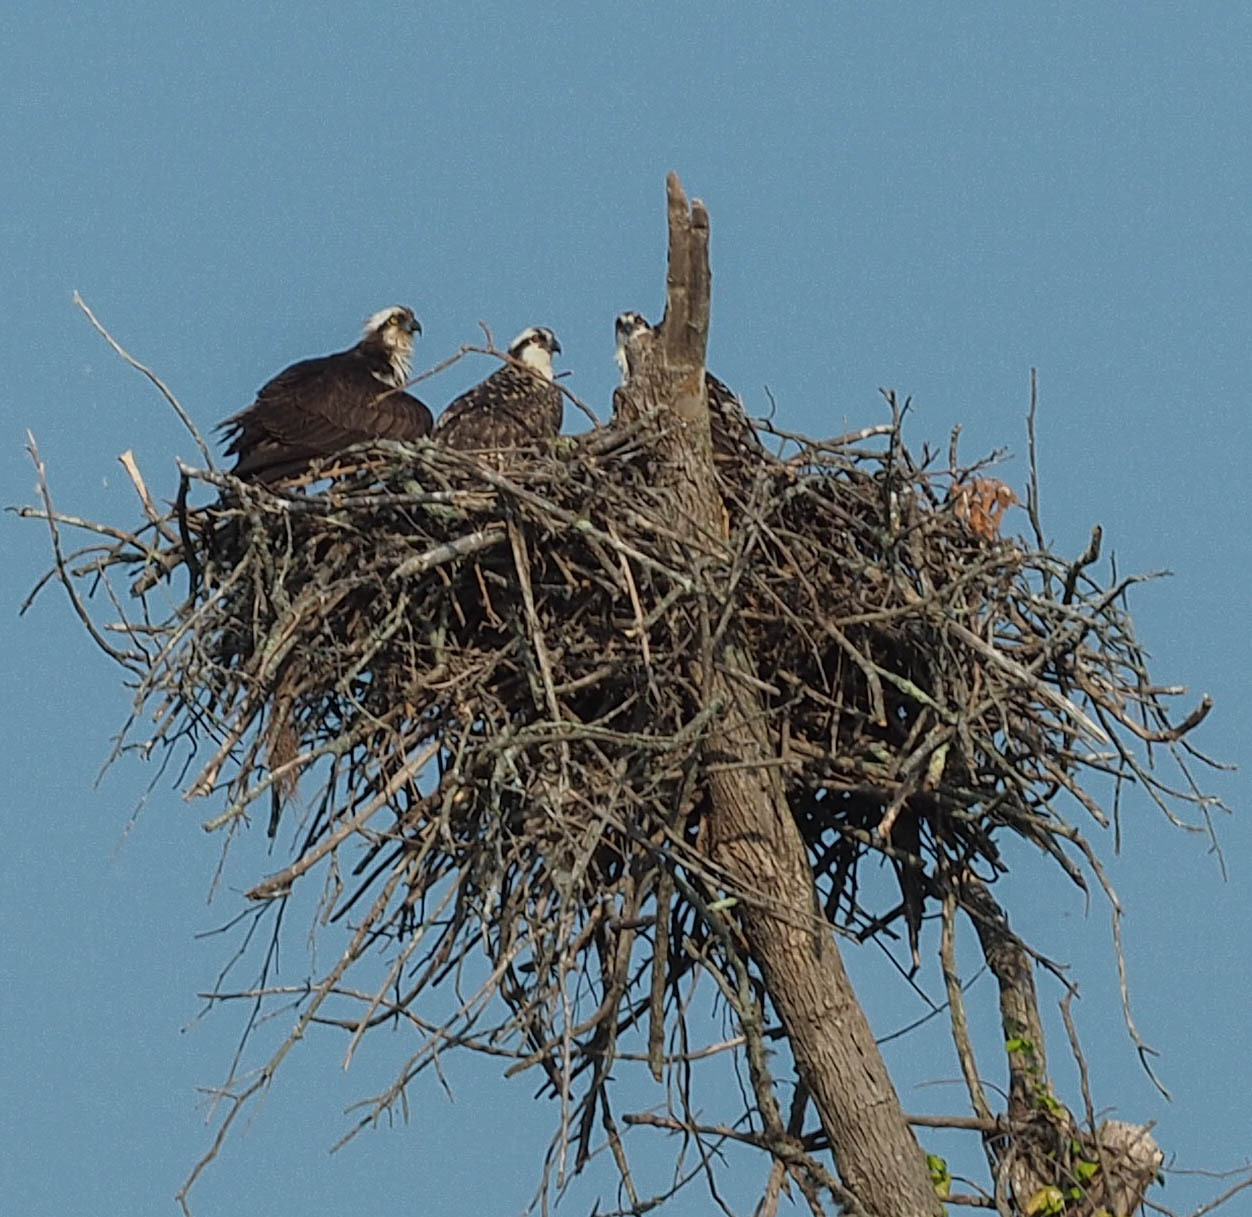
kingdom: Animalia
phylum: Chordata
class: Aves
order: Accipitriformes
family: Pandionidae
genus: Pandion
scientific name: Pandion haliaetus
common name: Osprey
